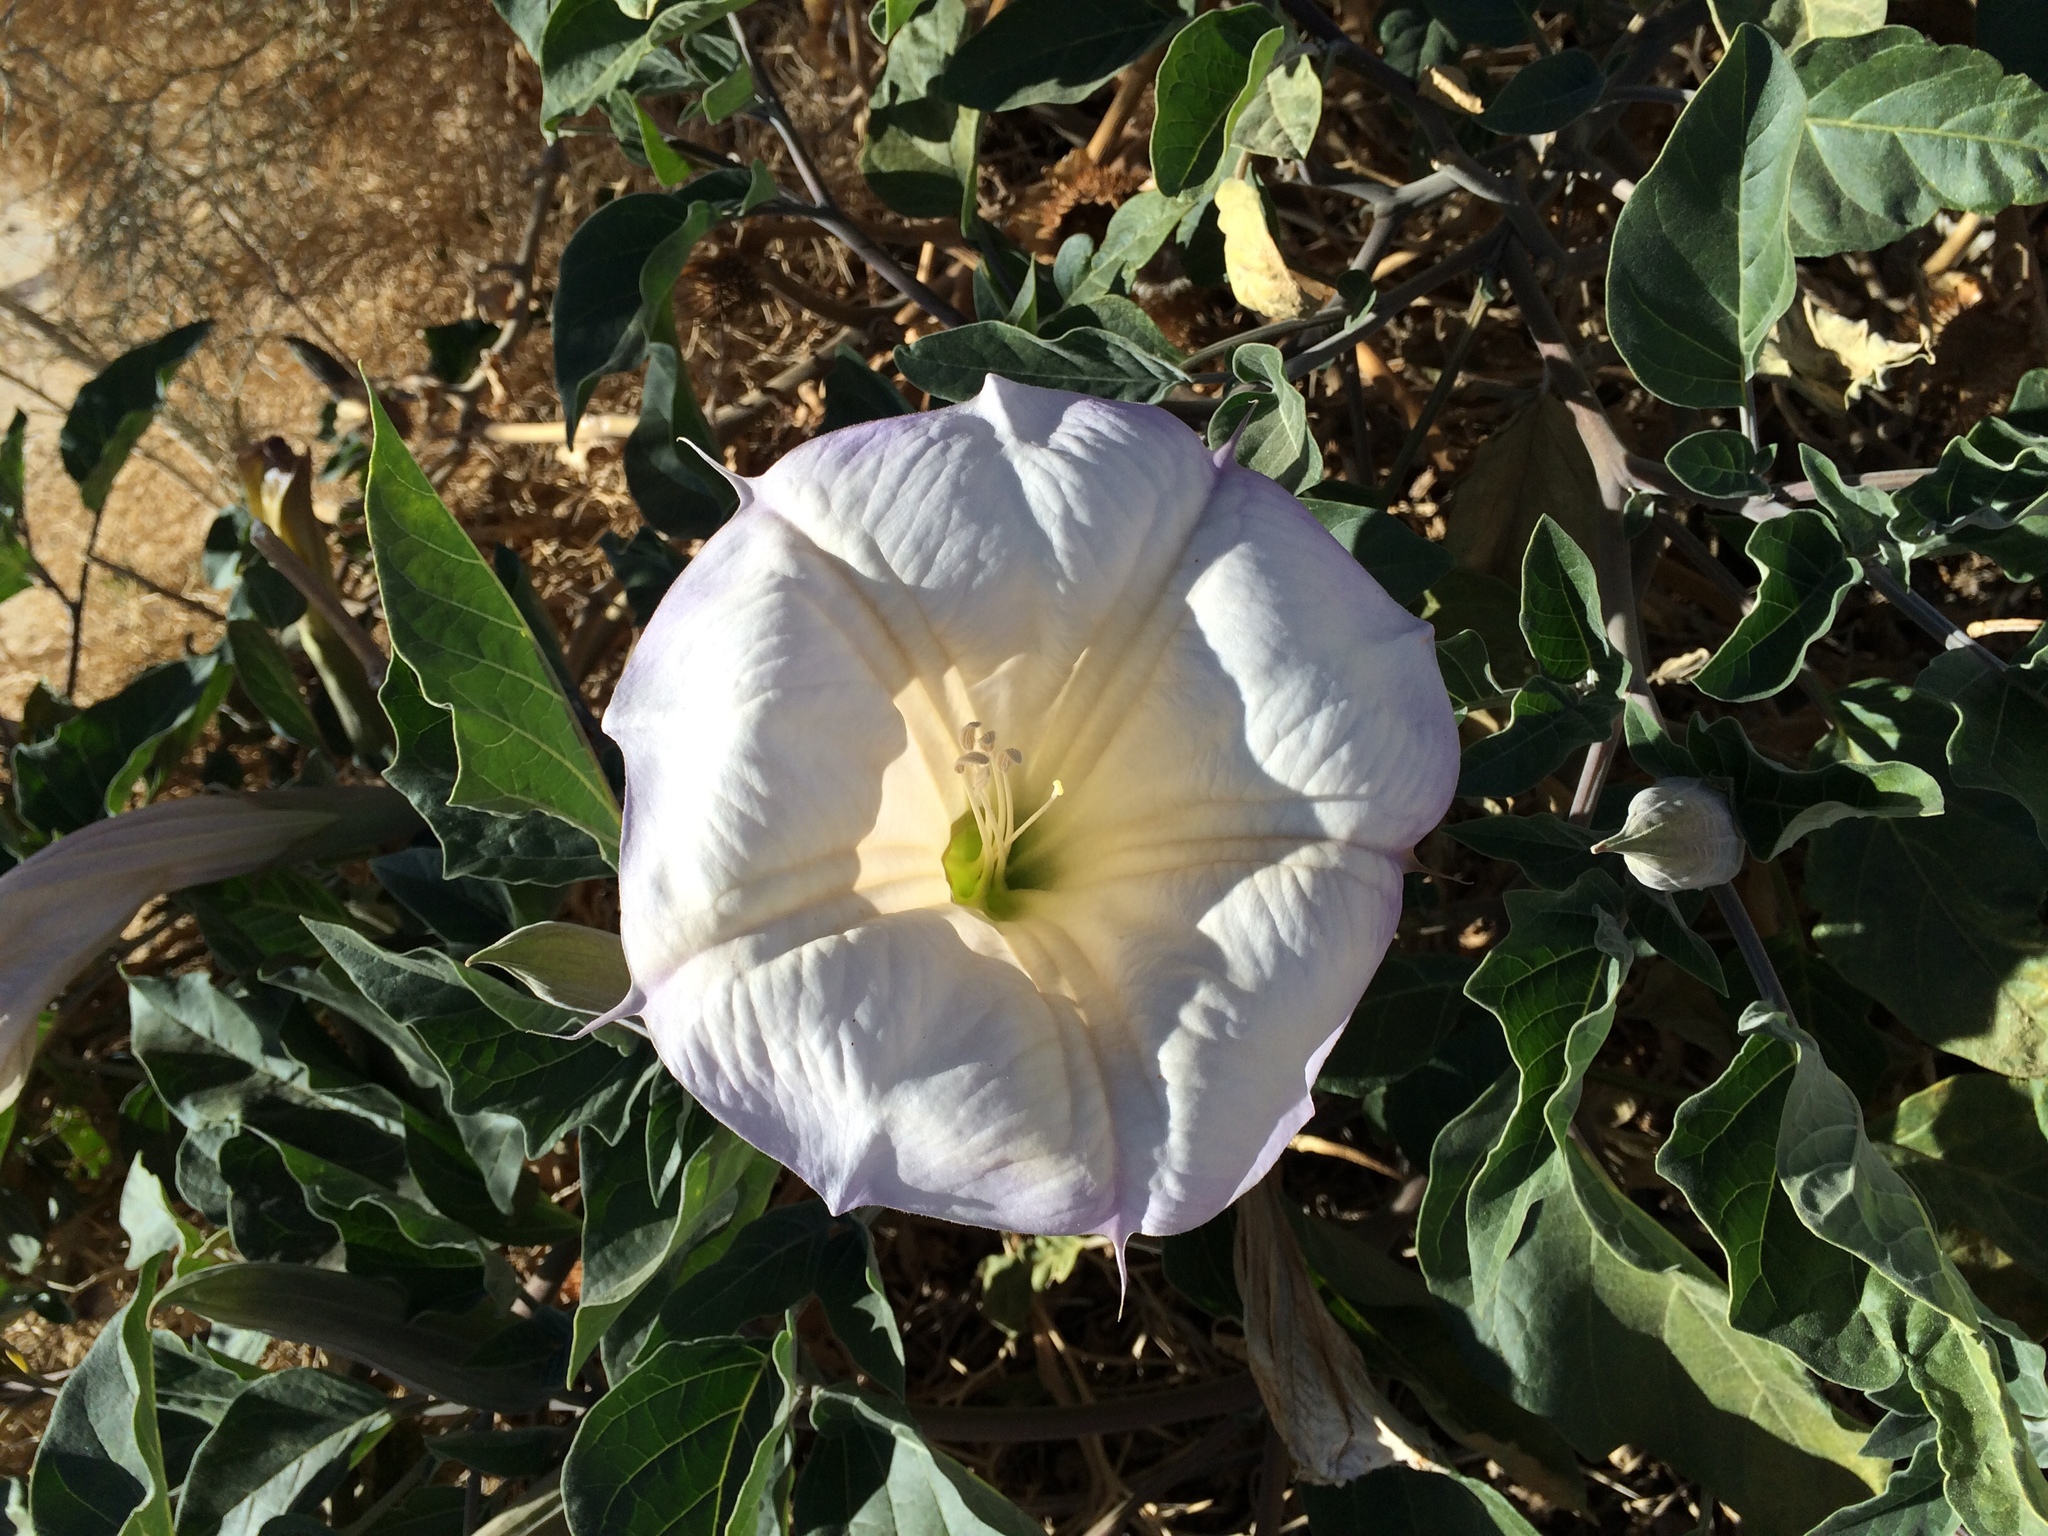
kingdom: Plantae
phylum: Tracheophyta
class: Magnoliopsida
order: Solanales
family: Solanaceae
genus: Datura
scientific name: Datura wrightii
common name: Sacred thorn-apple
